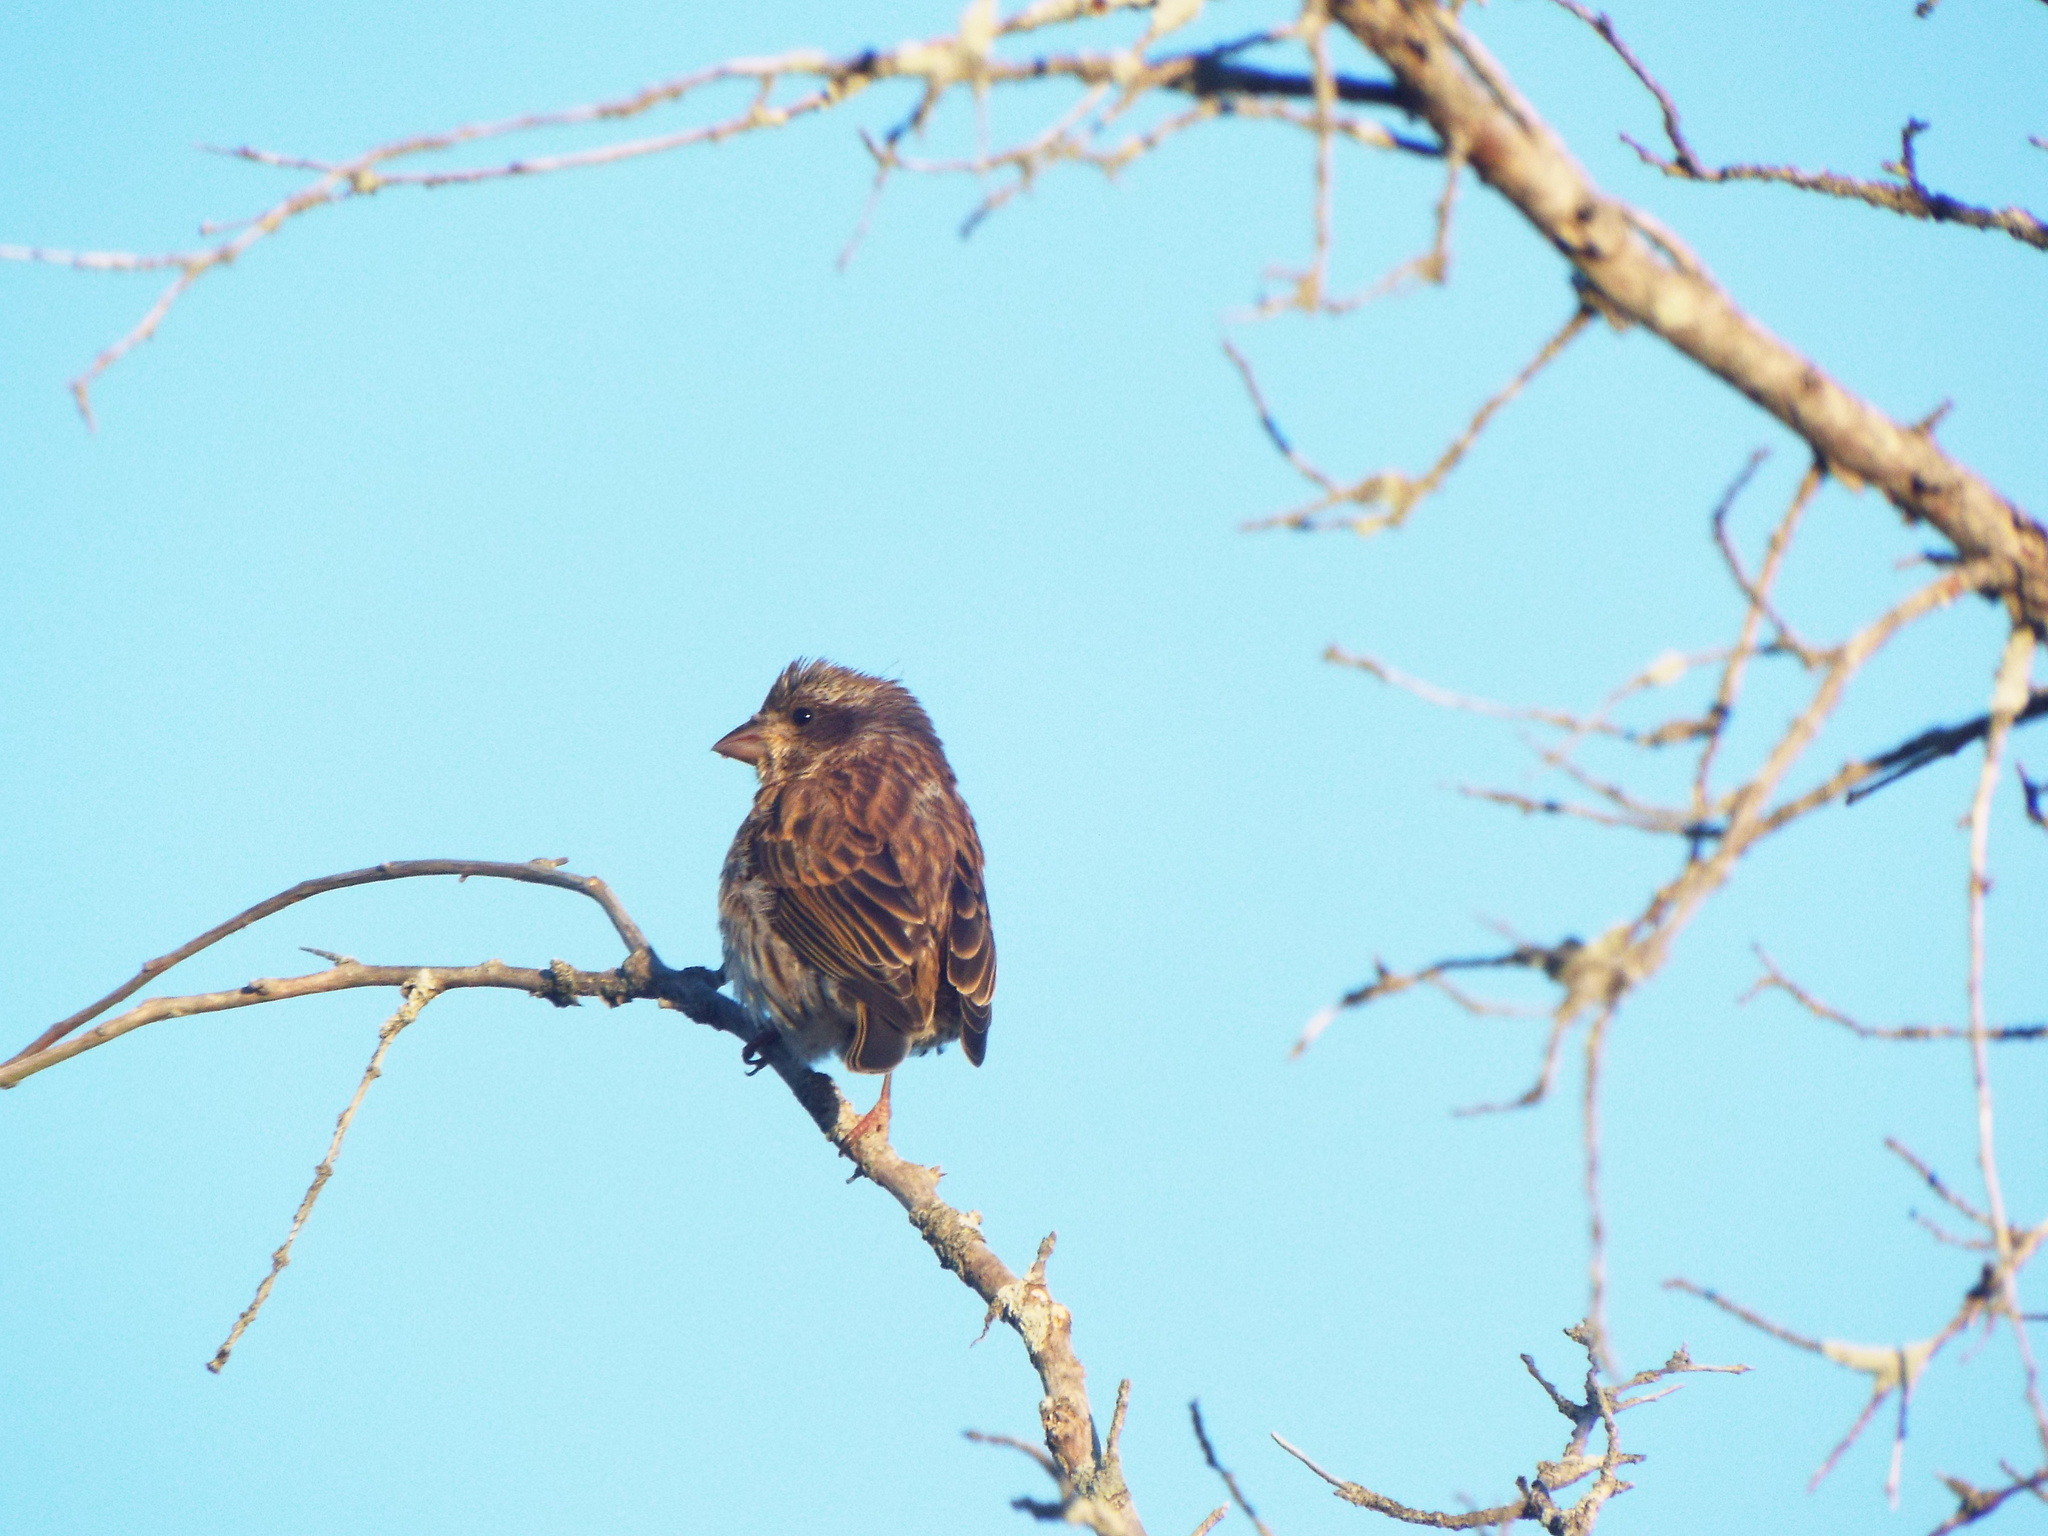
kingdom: Animalia
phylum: Chordata
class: Aves
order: Passeriformes
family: Fringillidae
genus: Haemorhous
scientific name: Haemorhous purpureus
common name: Purple finch
